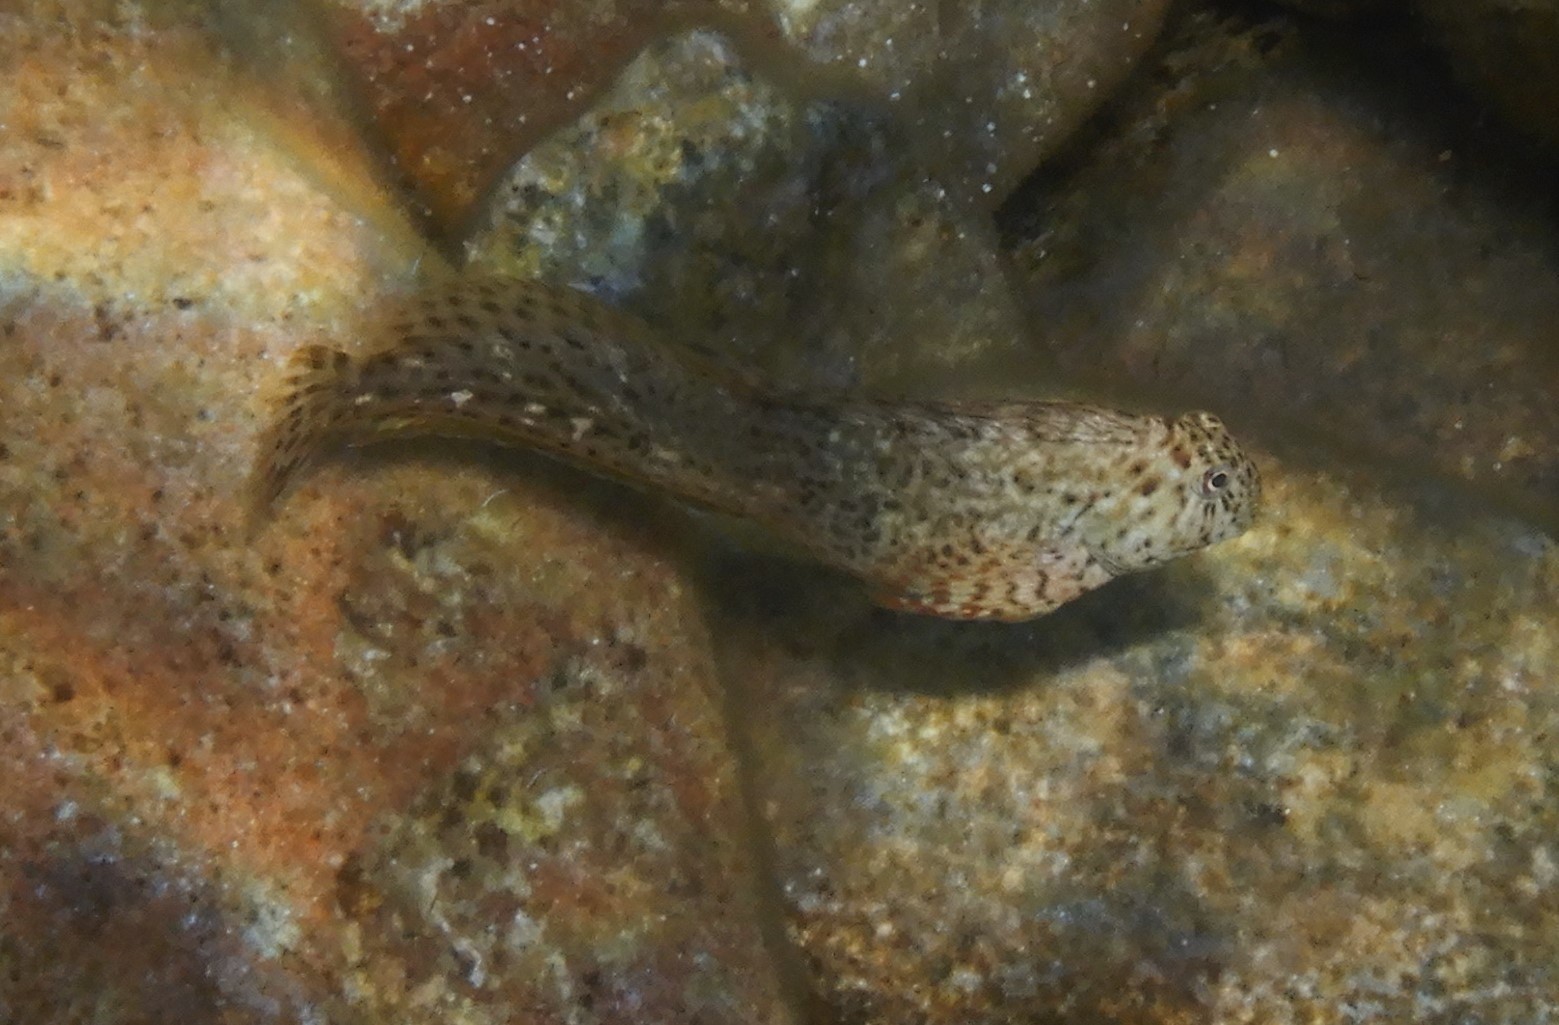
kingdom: Animalia
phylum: Chordata
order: Perciformes
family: Blenniidae
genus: Parablennius
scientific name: Parablennius sanguinolentus
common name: Black sea blenny
